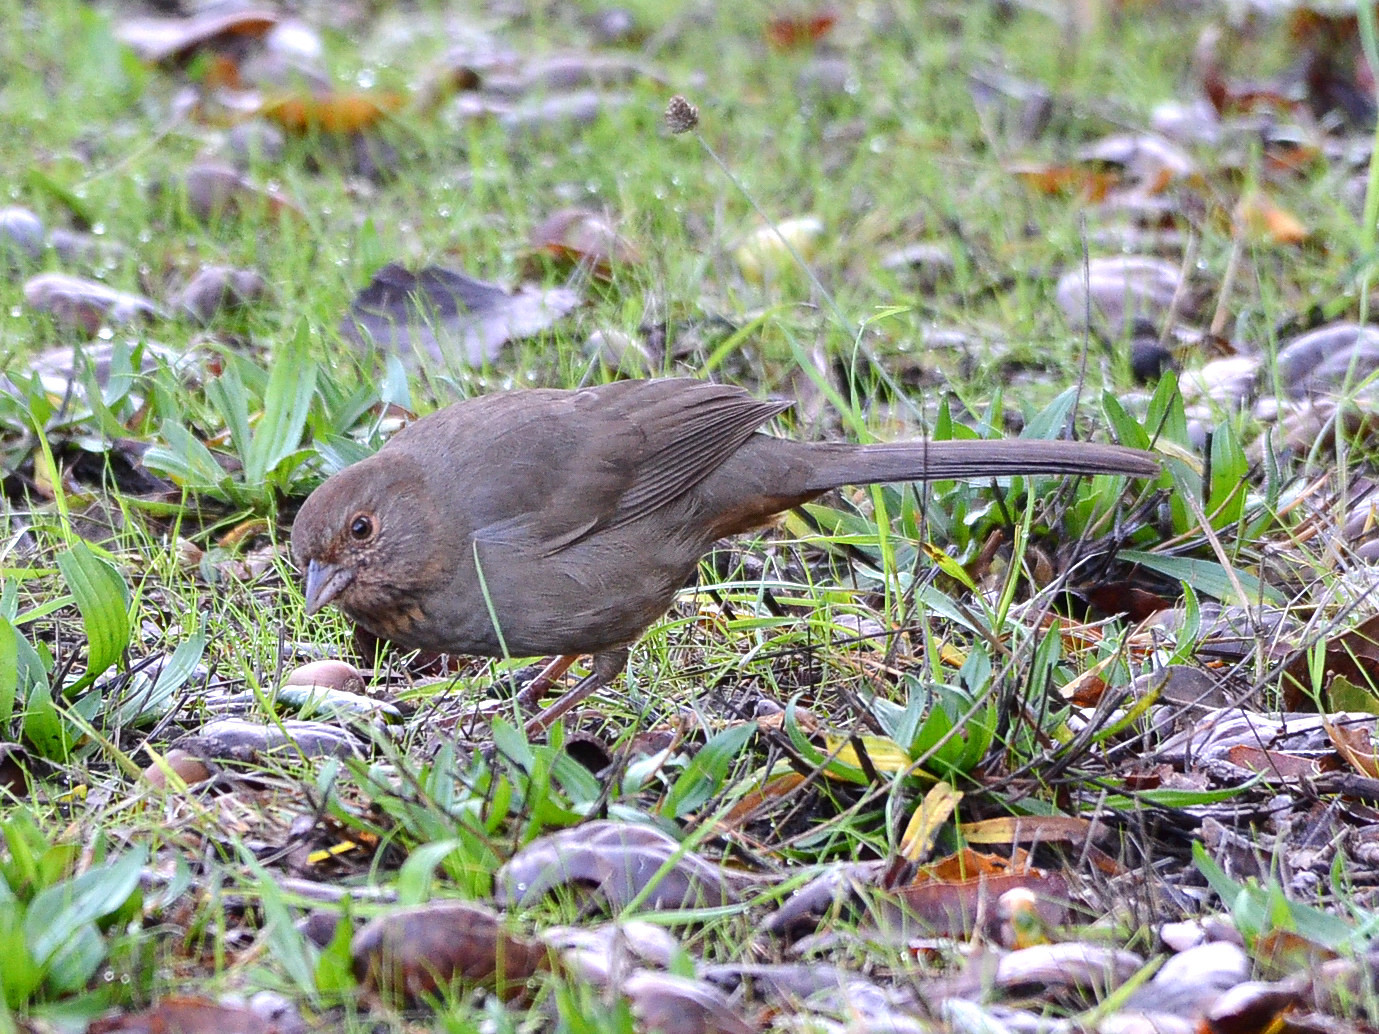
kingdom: Animalia
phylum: Chordata
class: Aves
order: Passeriformes
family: Passerellidae
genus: Melozone
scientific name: Melozone crissalis
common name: California towhee
